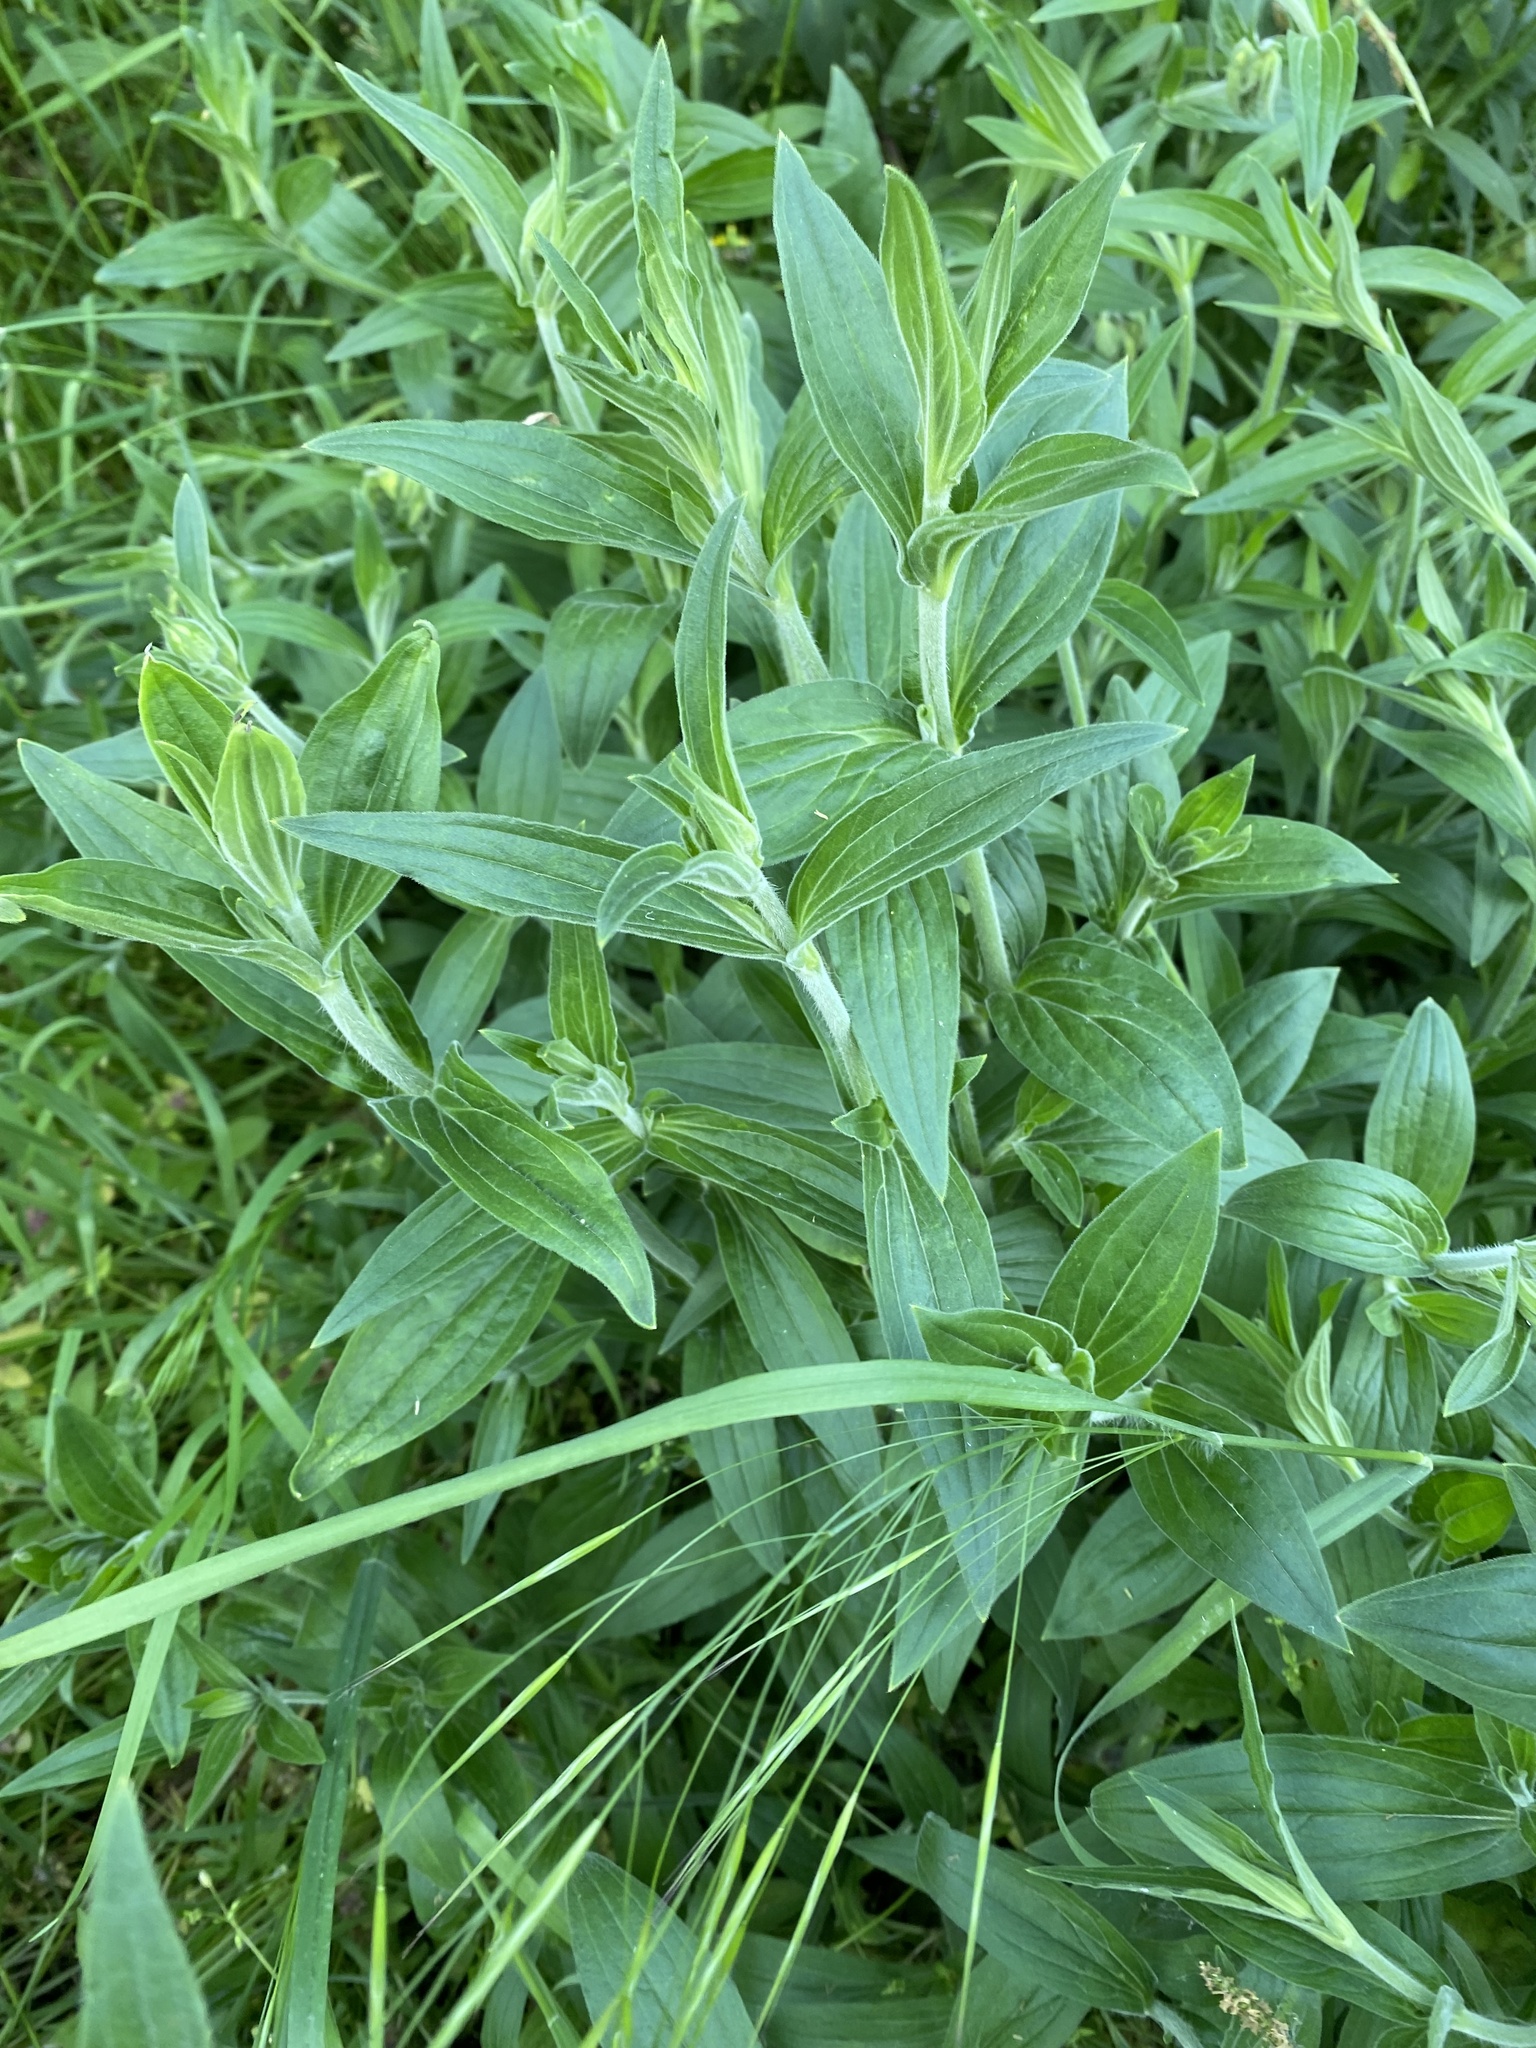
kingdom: Plantae
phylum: Tracheophyta
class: Magnoliopsida
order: Caryophyllales
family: Caryophyllaceae
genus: Silene
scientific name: Silene latifolia
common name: White campion
